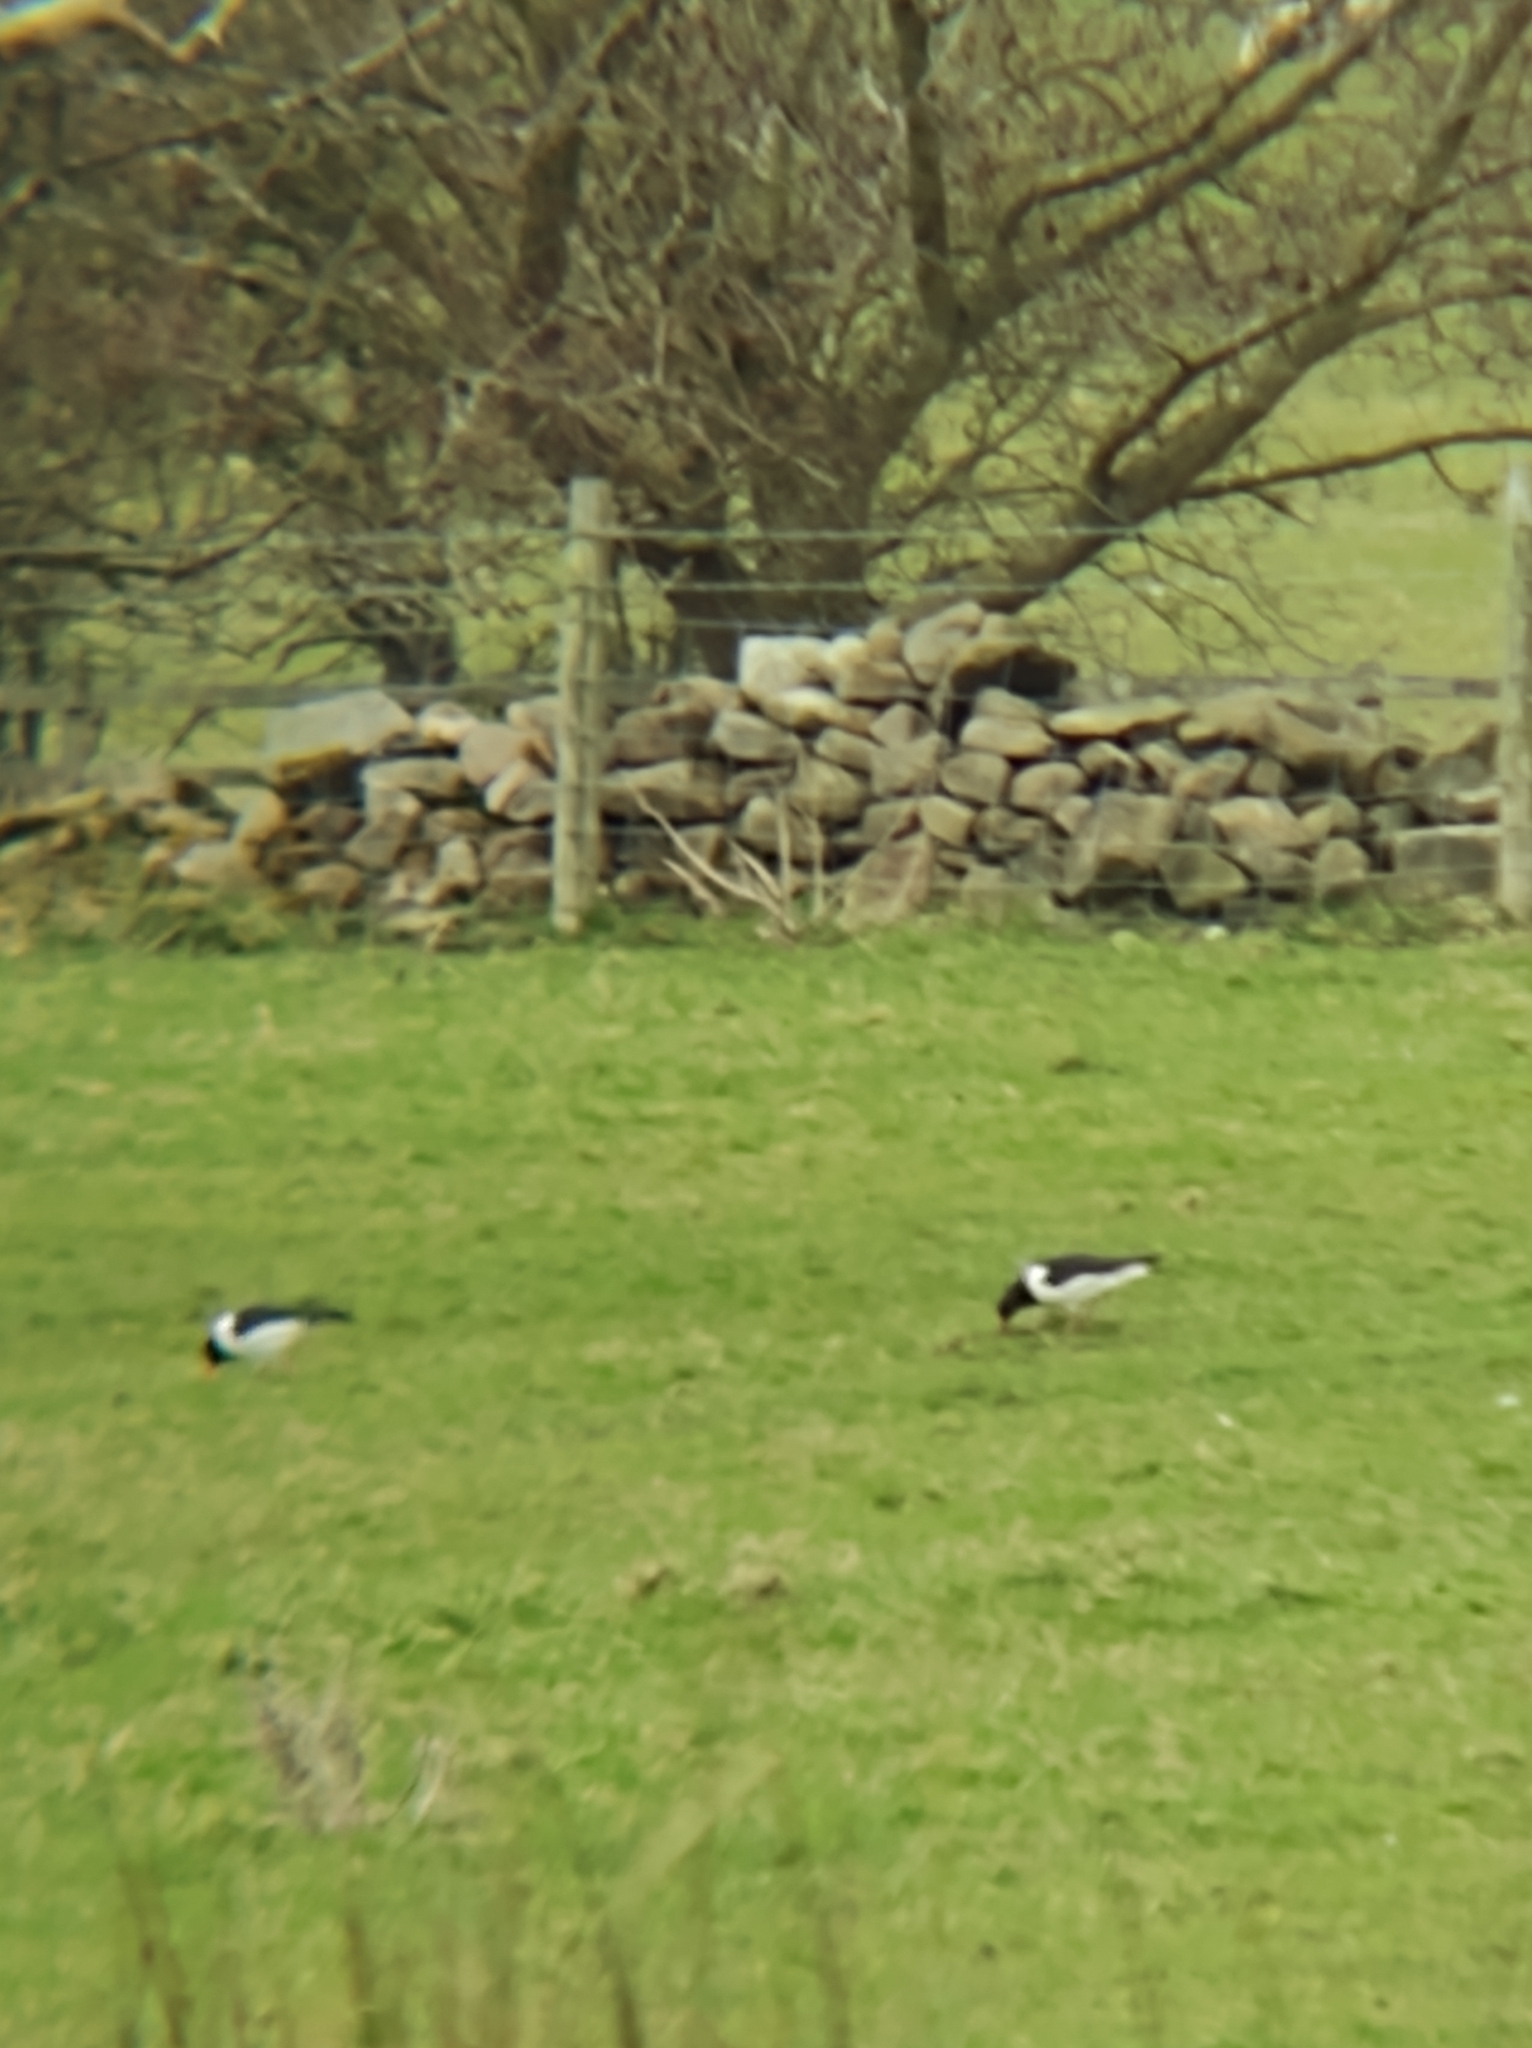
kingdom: Animalia
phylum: Chordata
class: Aves
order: Charadriiformes
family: Haematopodidae
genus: Haematopus
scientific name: Haematopus ostralegus
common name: Eurasian oystercatcher
